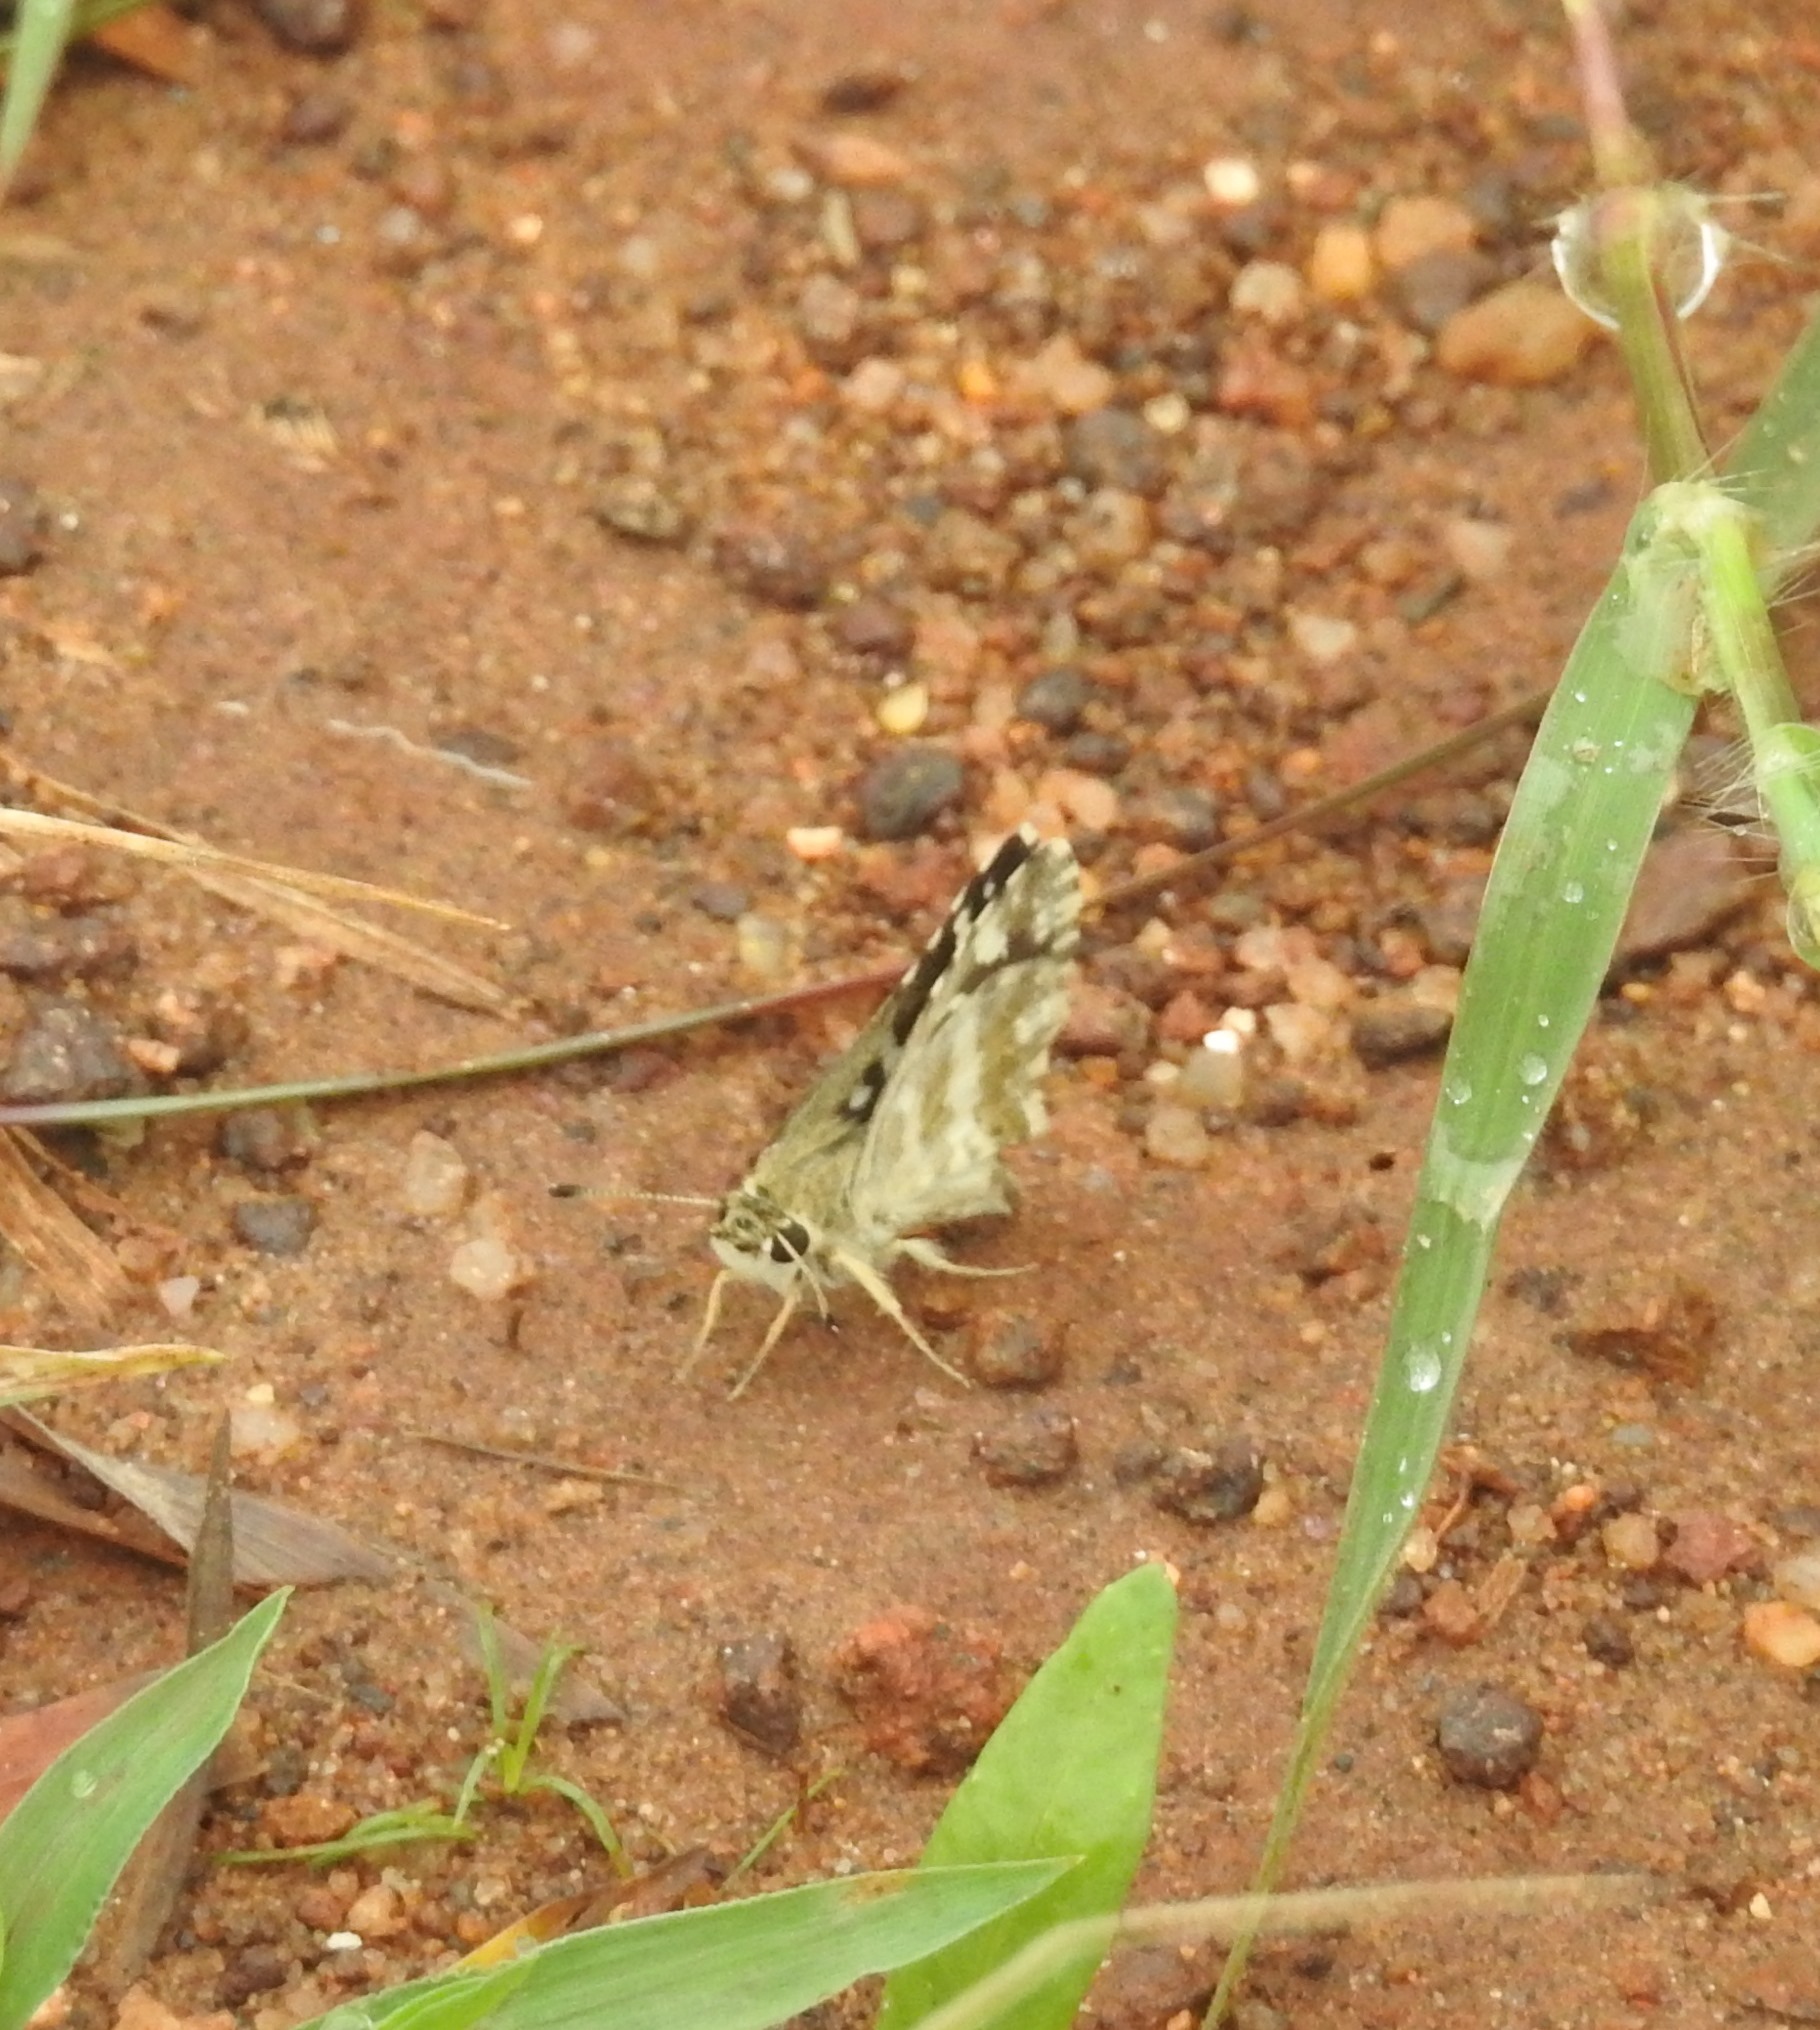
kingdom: Animalia
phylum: Arthropoda
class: Insecta
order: Lepidoptera
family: Hesperiidae
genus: Spialia
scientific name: Spialia galba
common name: Indian skipper
